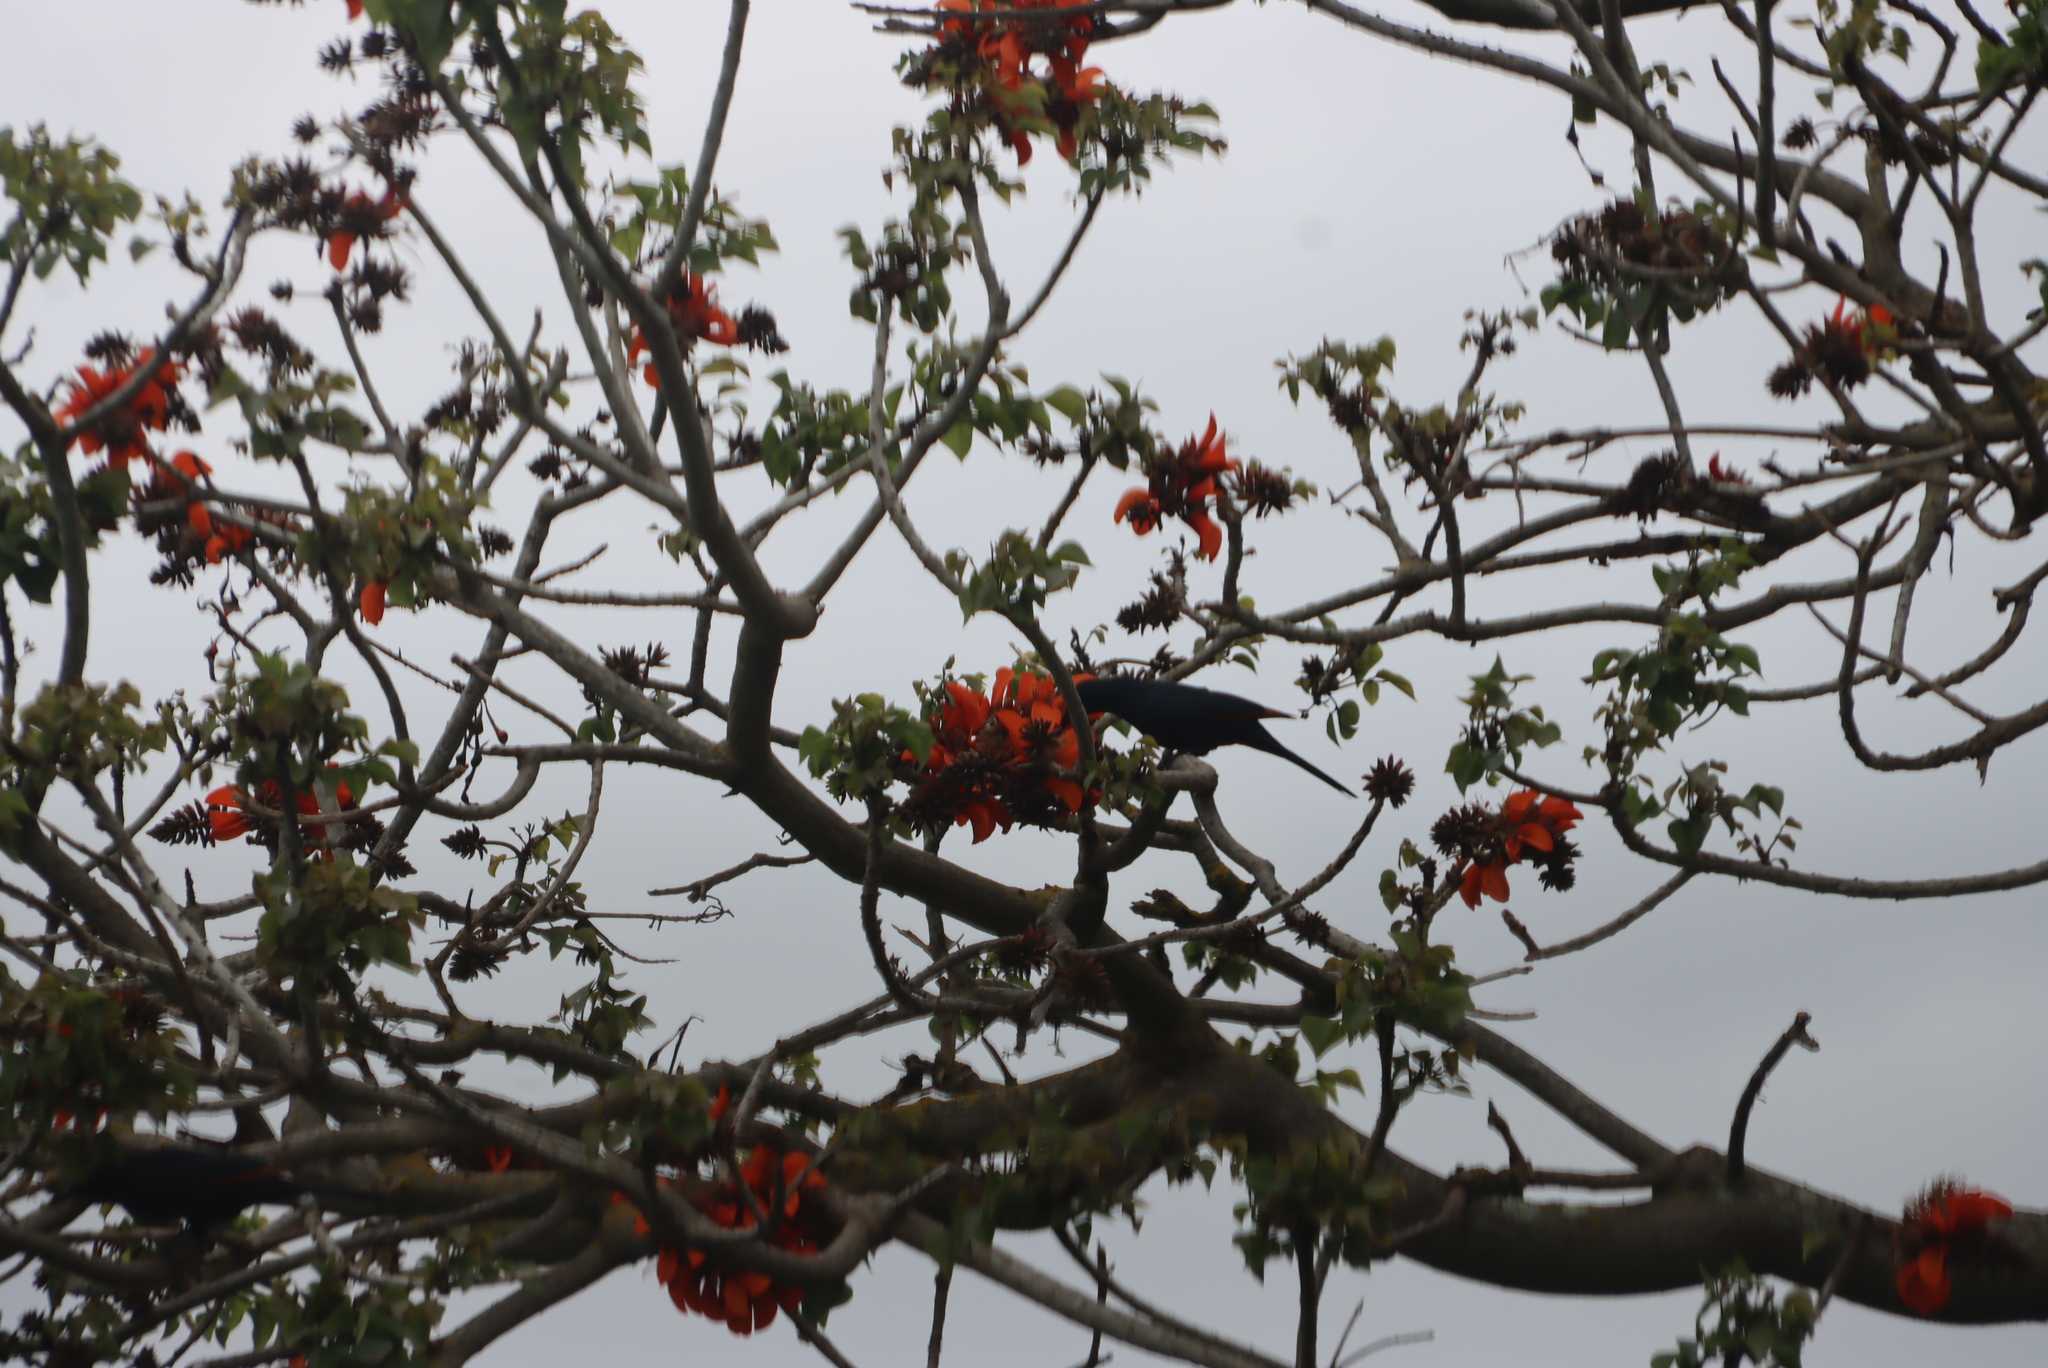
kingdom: Animalia
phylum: Chordata
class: Aves
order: Passeriformes
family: Sturnidae
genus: Onychognathus
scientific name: Onychognathus morio
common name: Red-winged starling
